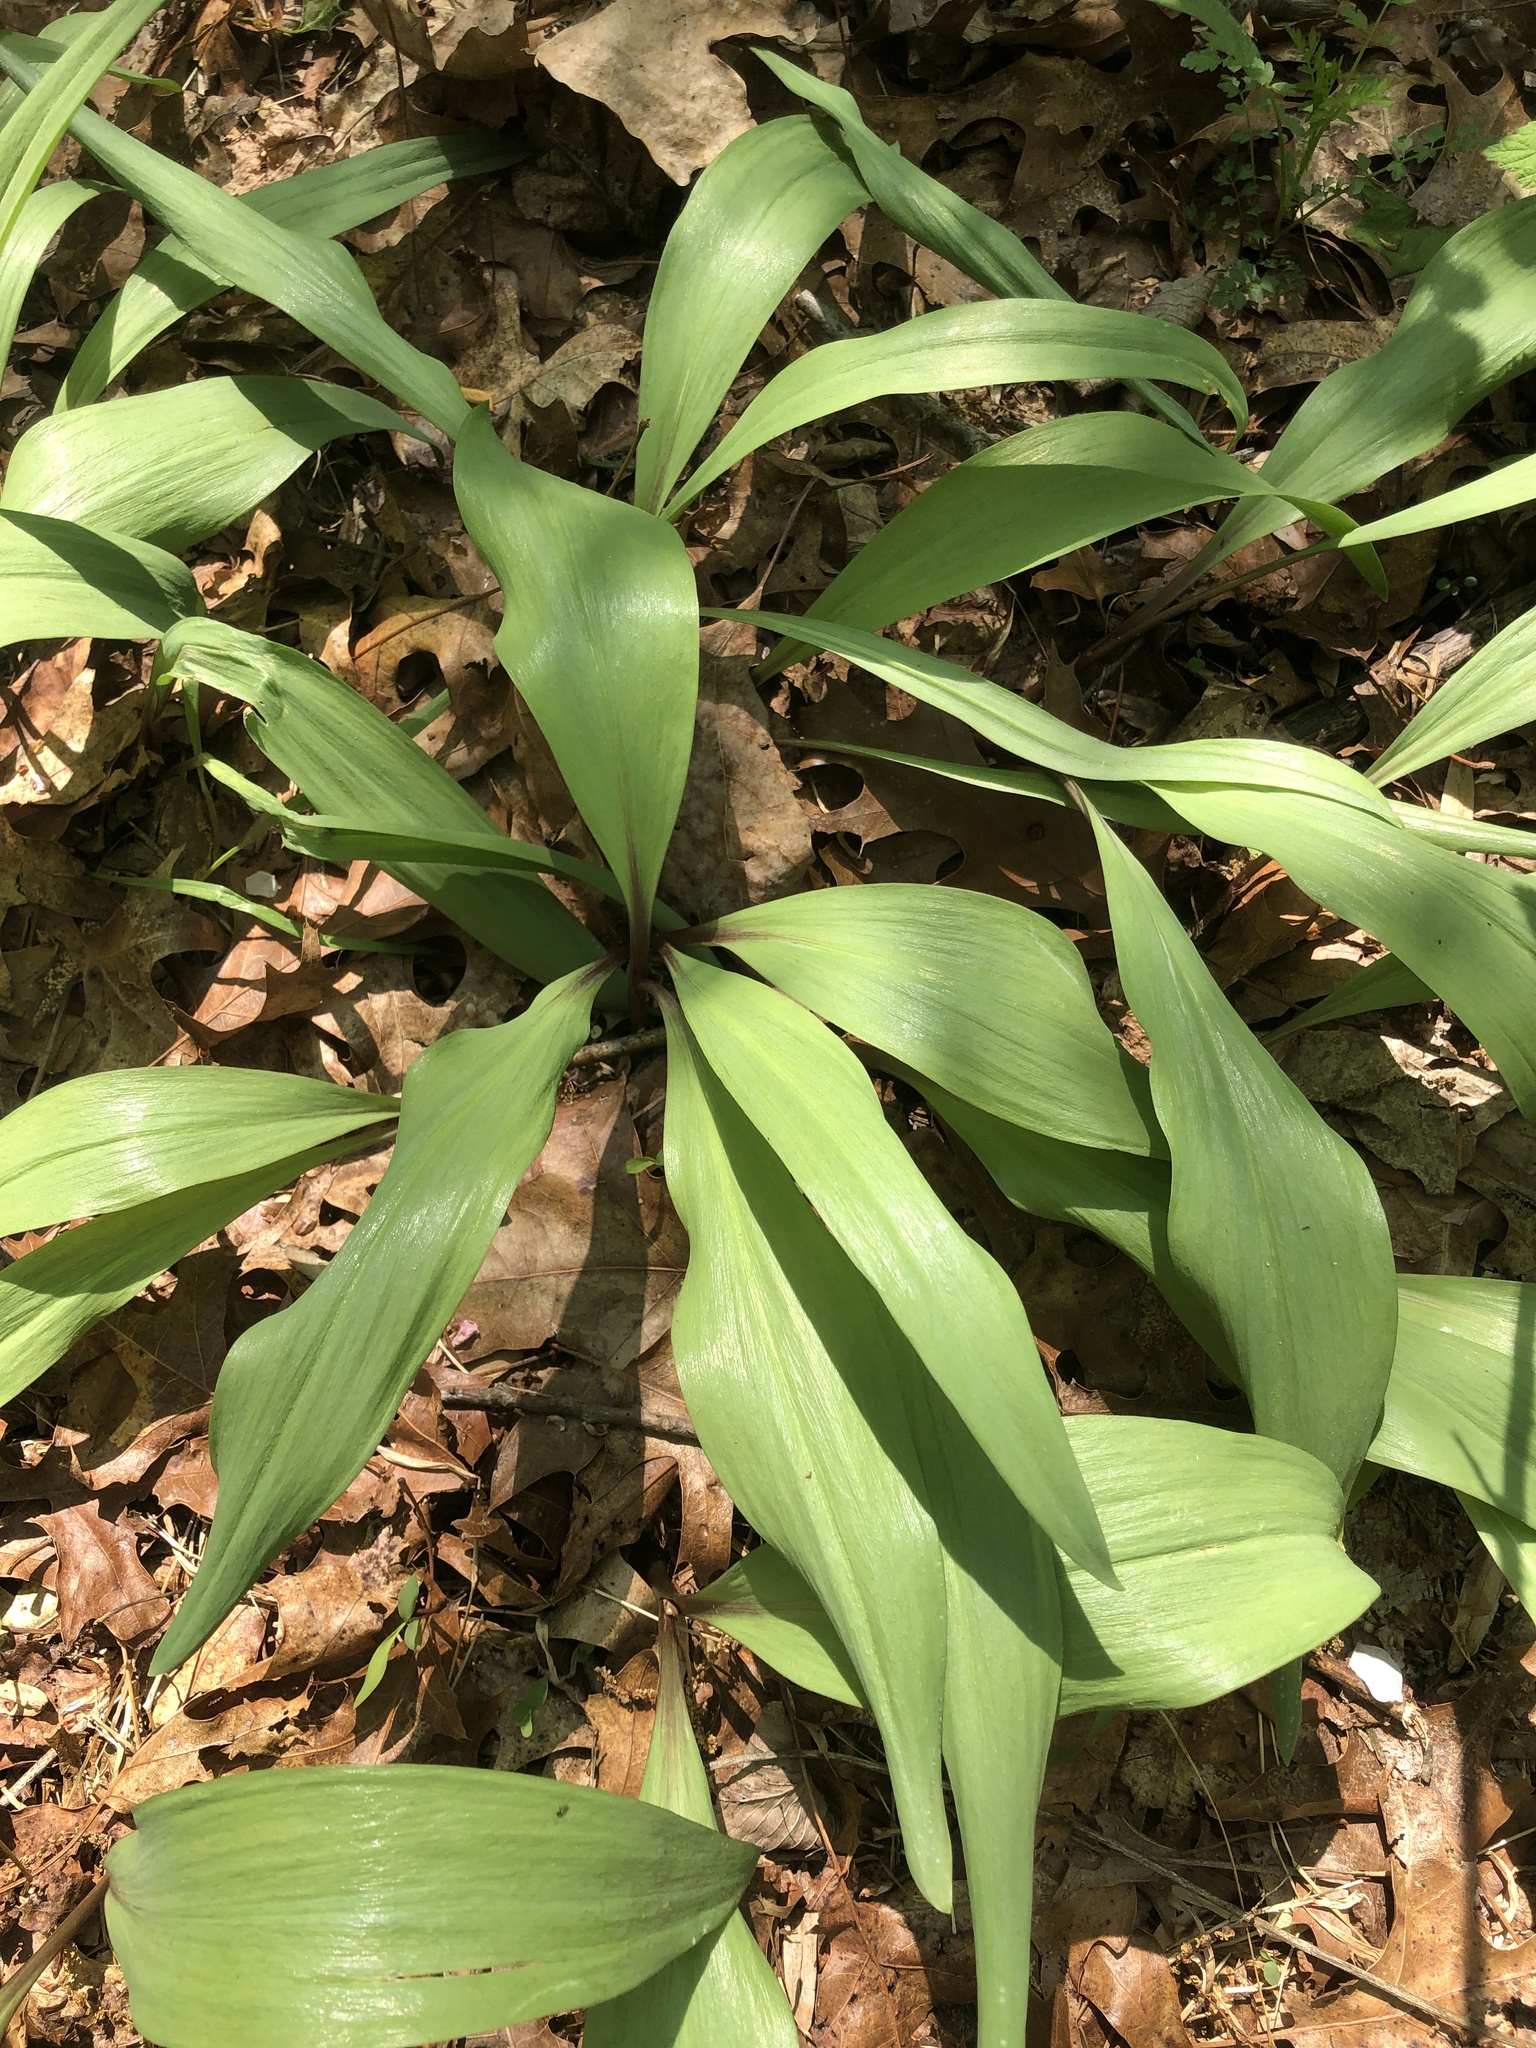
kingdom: Plantae
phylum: Tracheophyta
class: Liliopsida
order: Asparagales
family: Amaryllidaceae
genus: Allium
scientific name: Allium tricoccum
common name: Ramp
